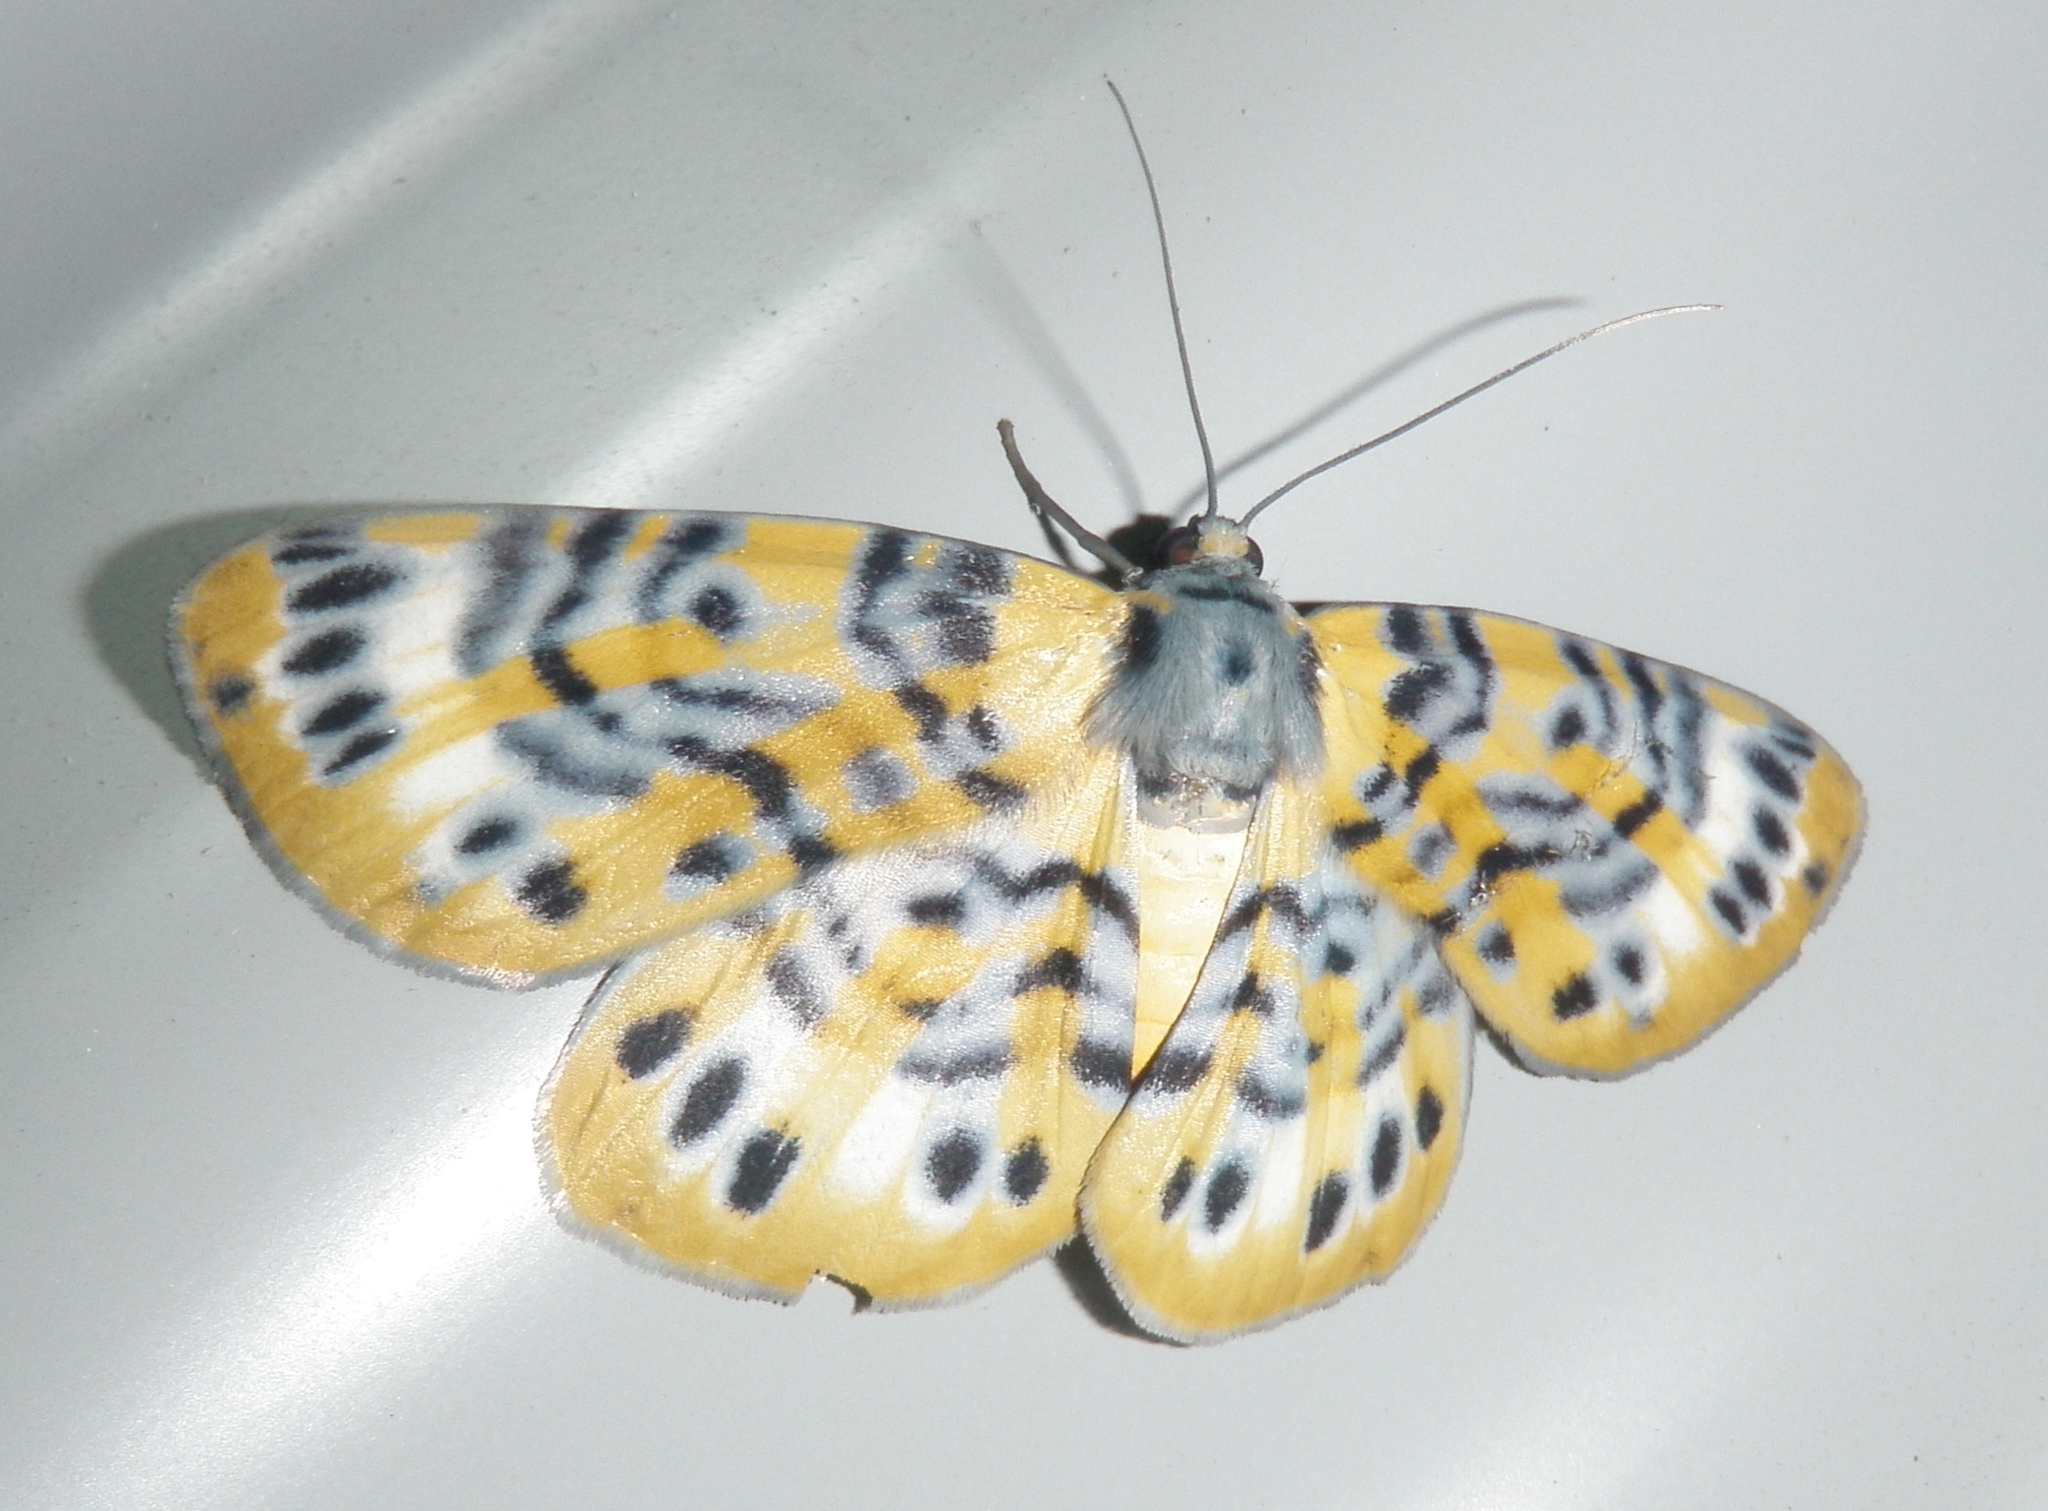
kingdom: Animalia
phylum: Arthropoda
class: Insecta
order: Lepidoptera
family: Geometridae
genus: Bracca
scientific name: Bracca rotundata
